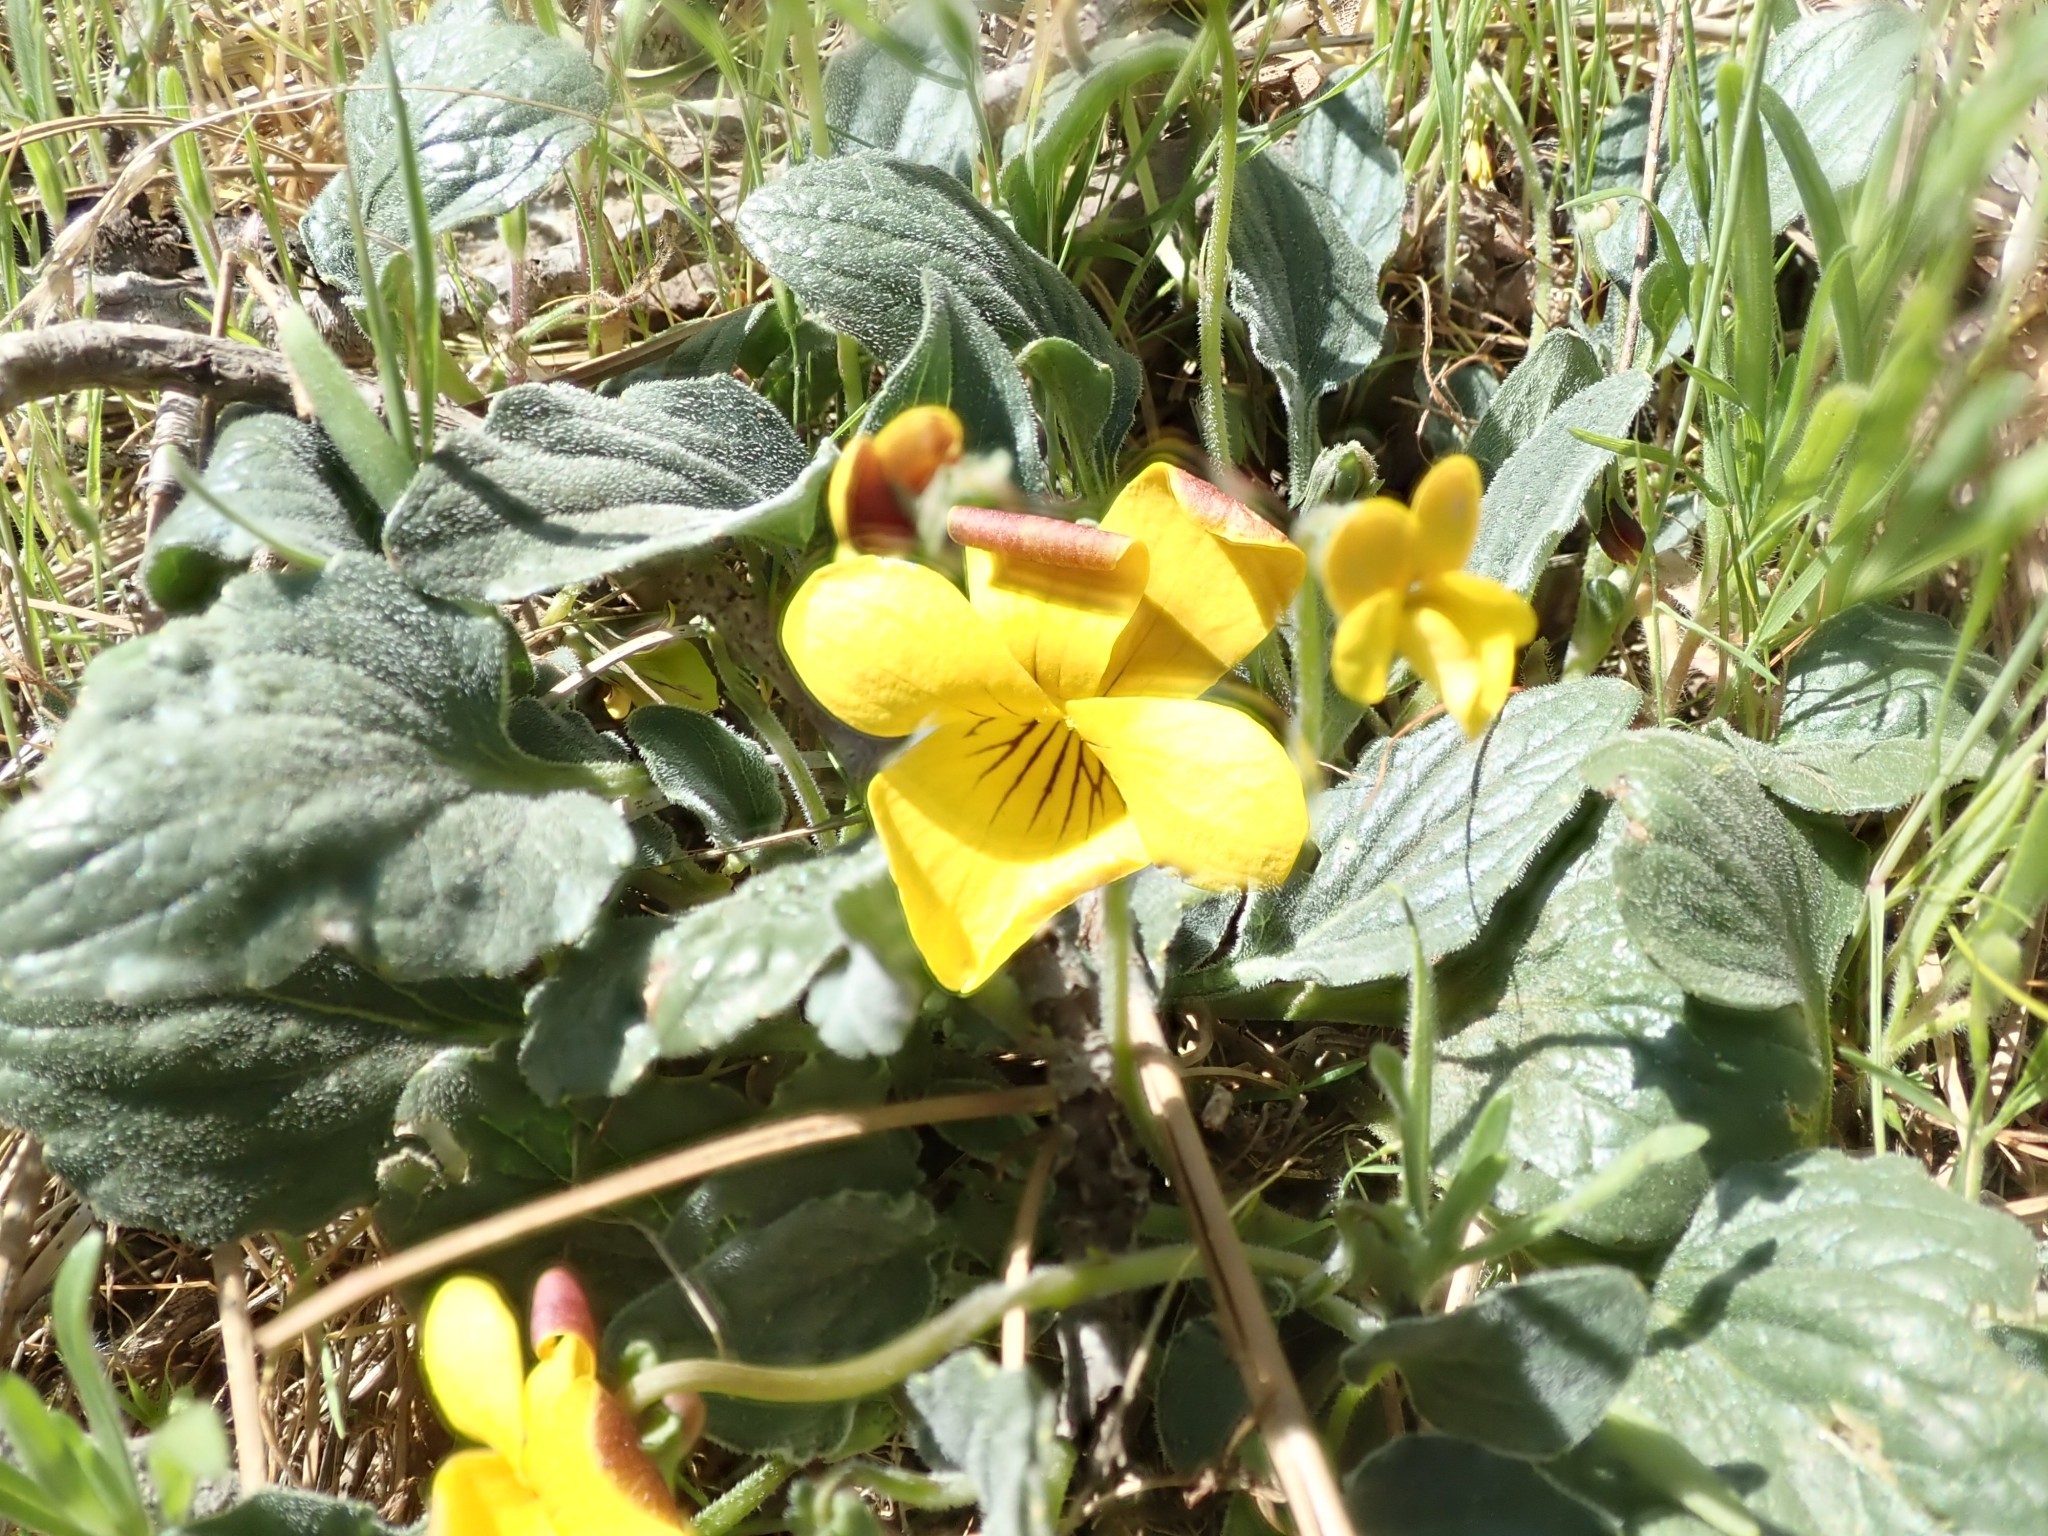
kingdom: Plantae
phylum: Tracheophyta
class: Magnoliopsida
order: Malpighiales
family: Violaceae
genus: Viola
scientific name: Viola purpurea
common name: Pine violet
